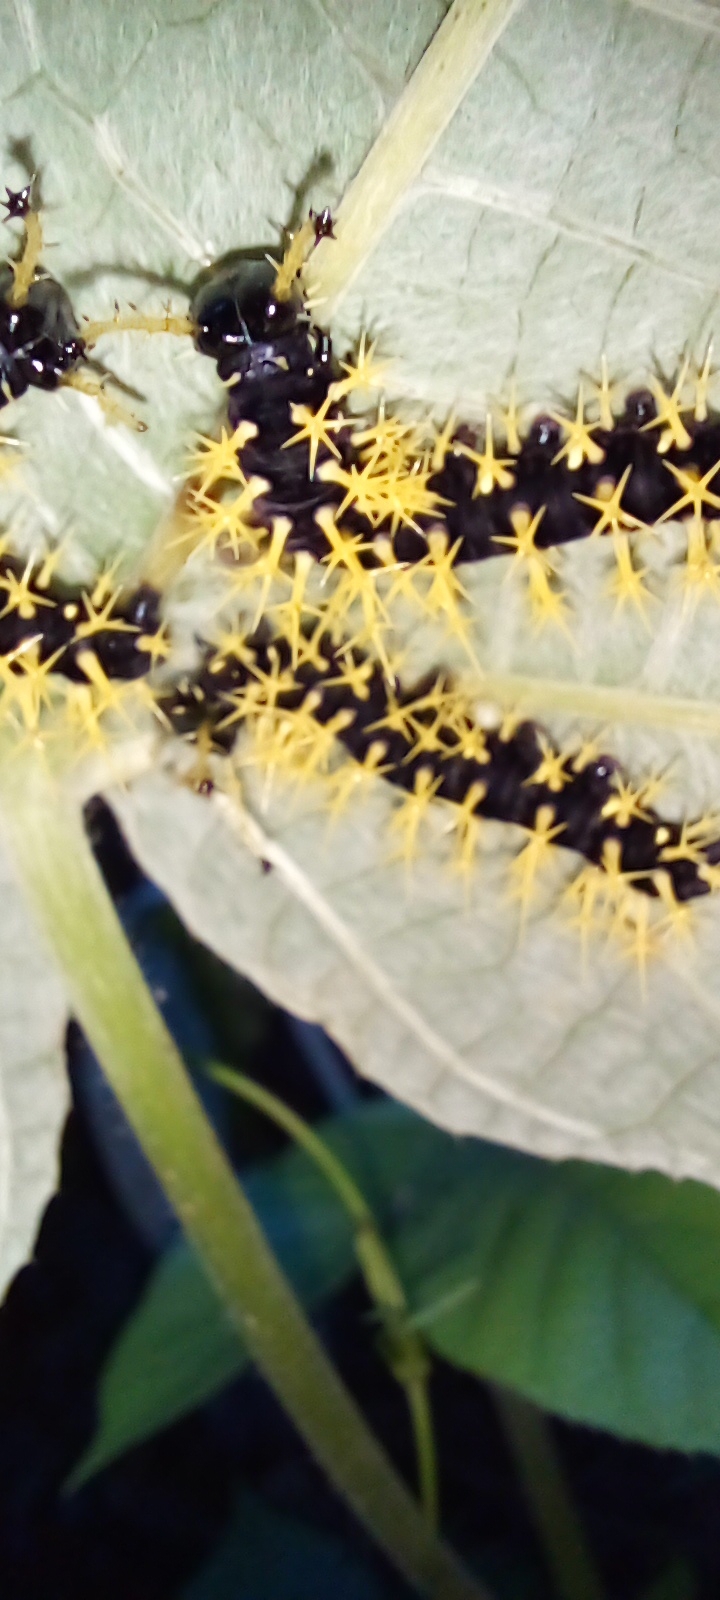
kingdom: Animalia
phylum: Arthropoda
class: Insecta
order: Lepidoptera
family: Nymphalidae
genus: Colobura
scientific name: Colobura dirce
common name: Dirce beauty
